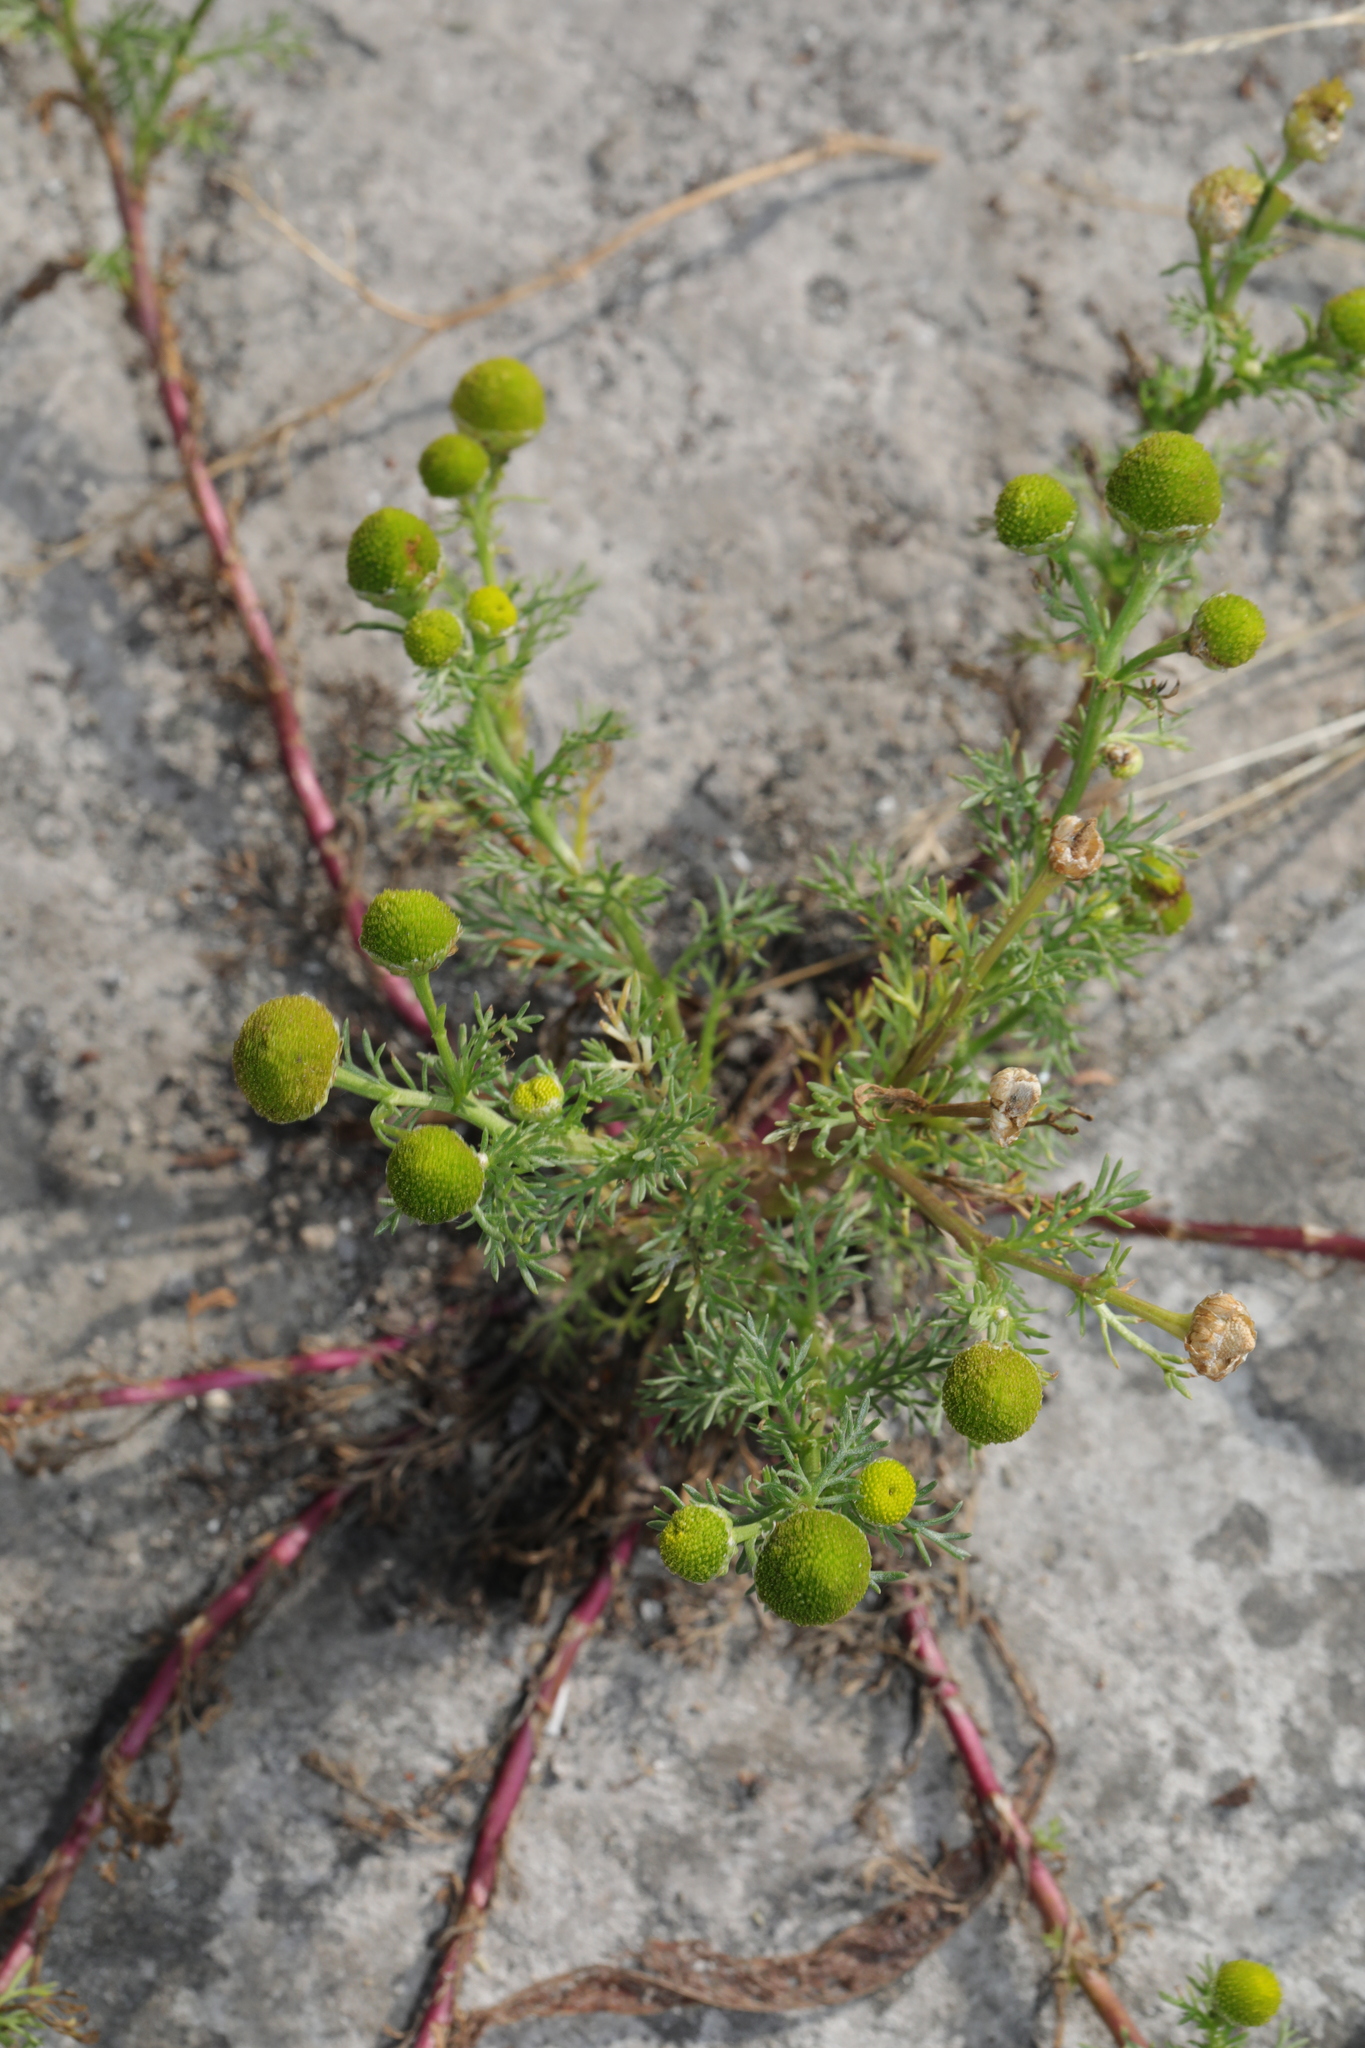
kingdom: Plantae
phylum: Tracheophyta
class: Magnoliopsida
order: Asterales
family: Asteraceae
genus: Matricaria
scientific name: Matricaria discoidea
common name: Disc mayweed
